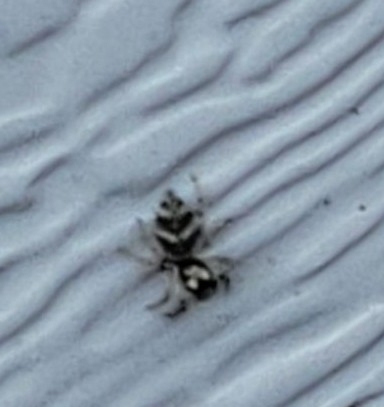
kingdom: Animalia
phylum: Arthropoda
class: Arachnida
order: Araneae
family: Salticidae
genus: Salticus
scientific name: Salticus scenicus
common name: Zebra jumper
